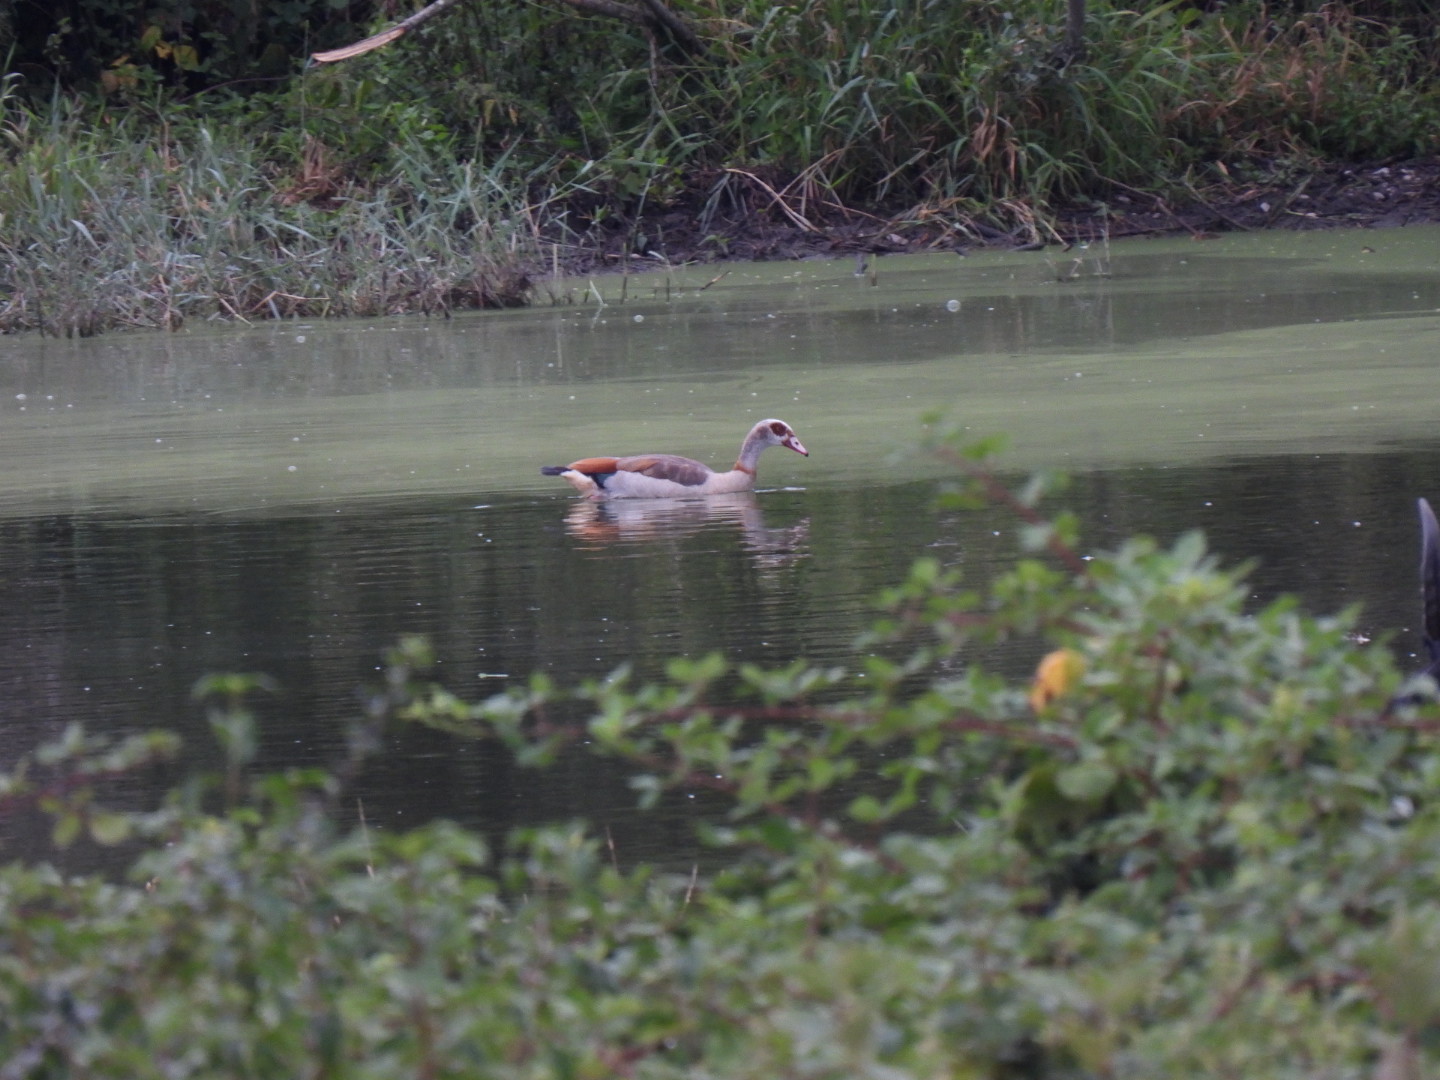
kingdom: Animalia
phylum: Chordata
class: Aves
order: Anseriformes
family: Anatidae
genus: Alopochen
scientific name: Alopochen aegyptiaca
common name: Egyptian goose
